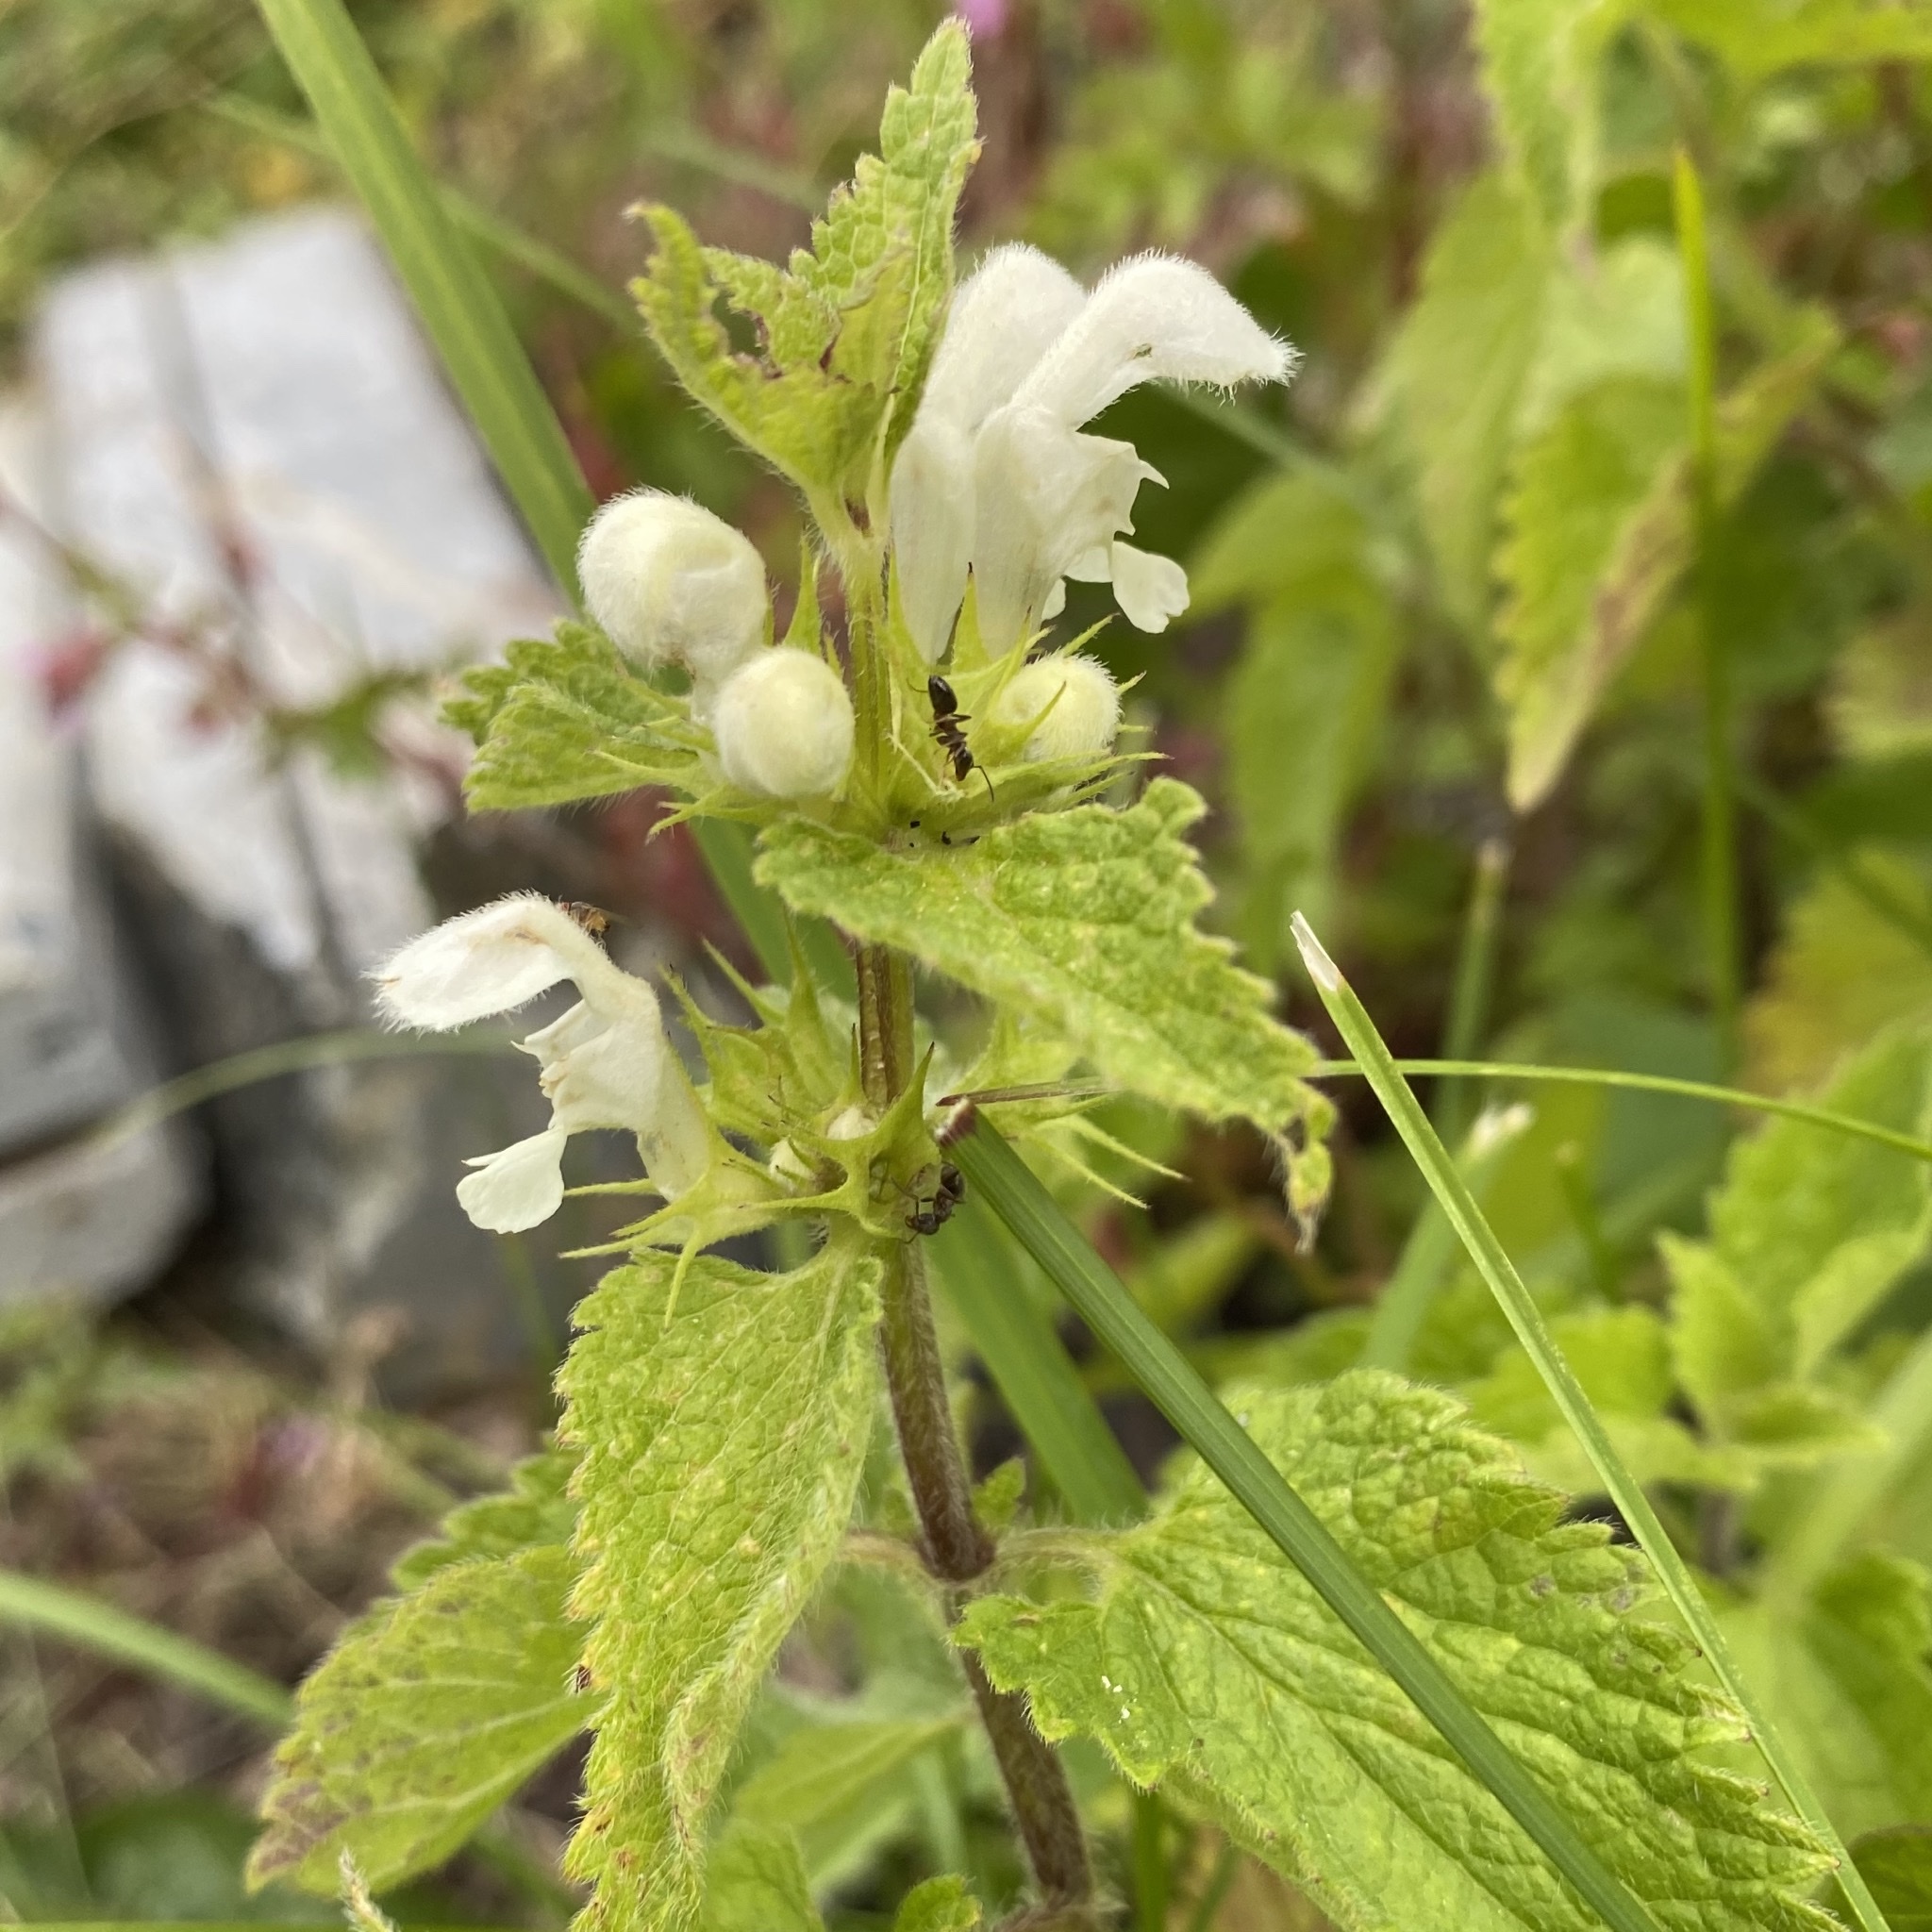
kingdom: Plantae
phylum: Tracheophyta
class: Magnoliopsida
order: Lamiales
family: Lamiaceae
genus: Lamium
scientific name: Lamium album
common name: White dead-nettle
